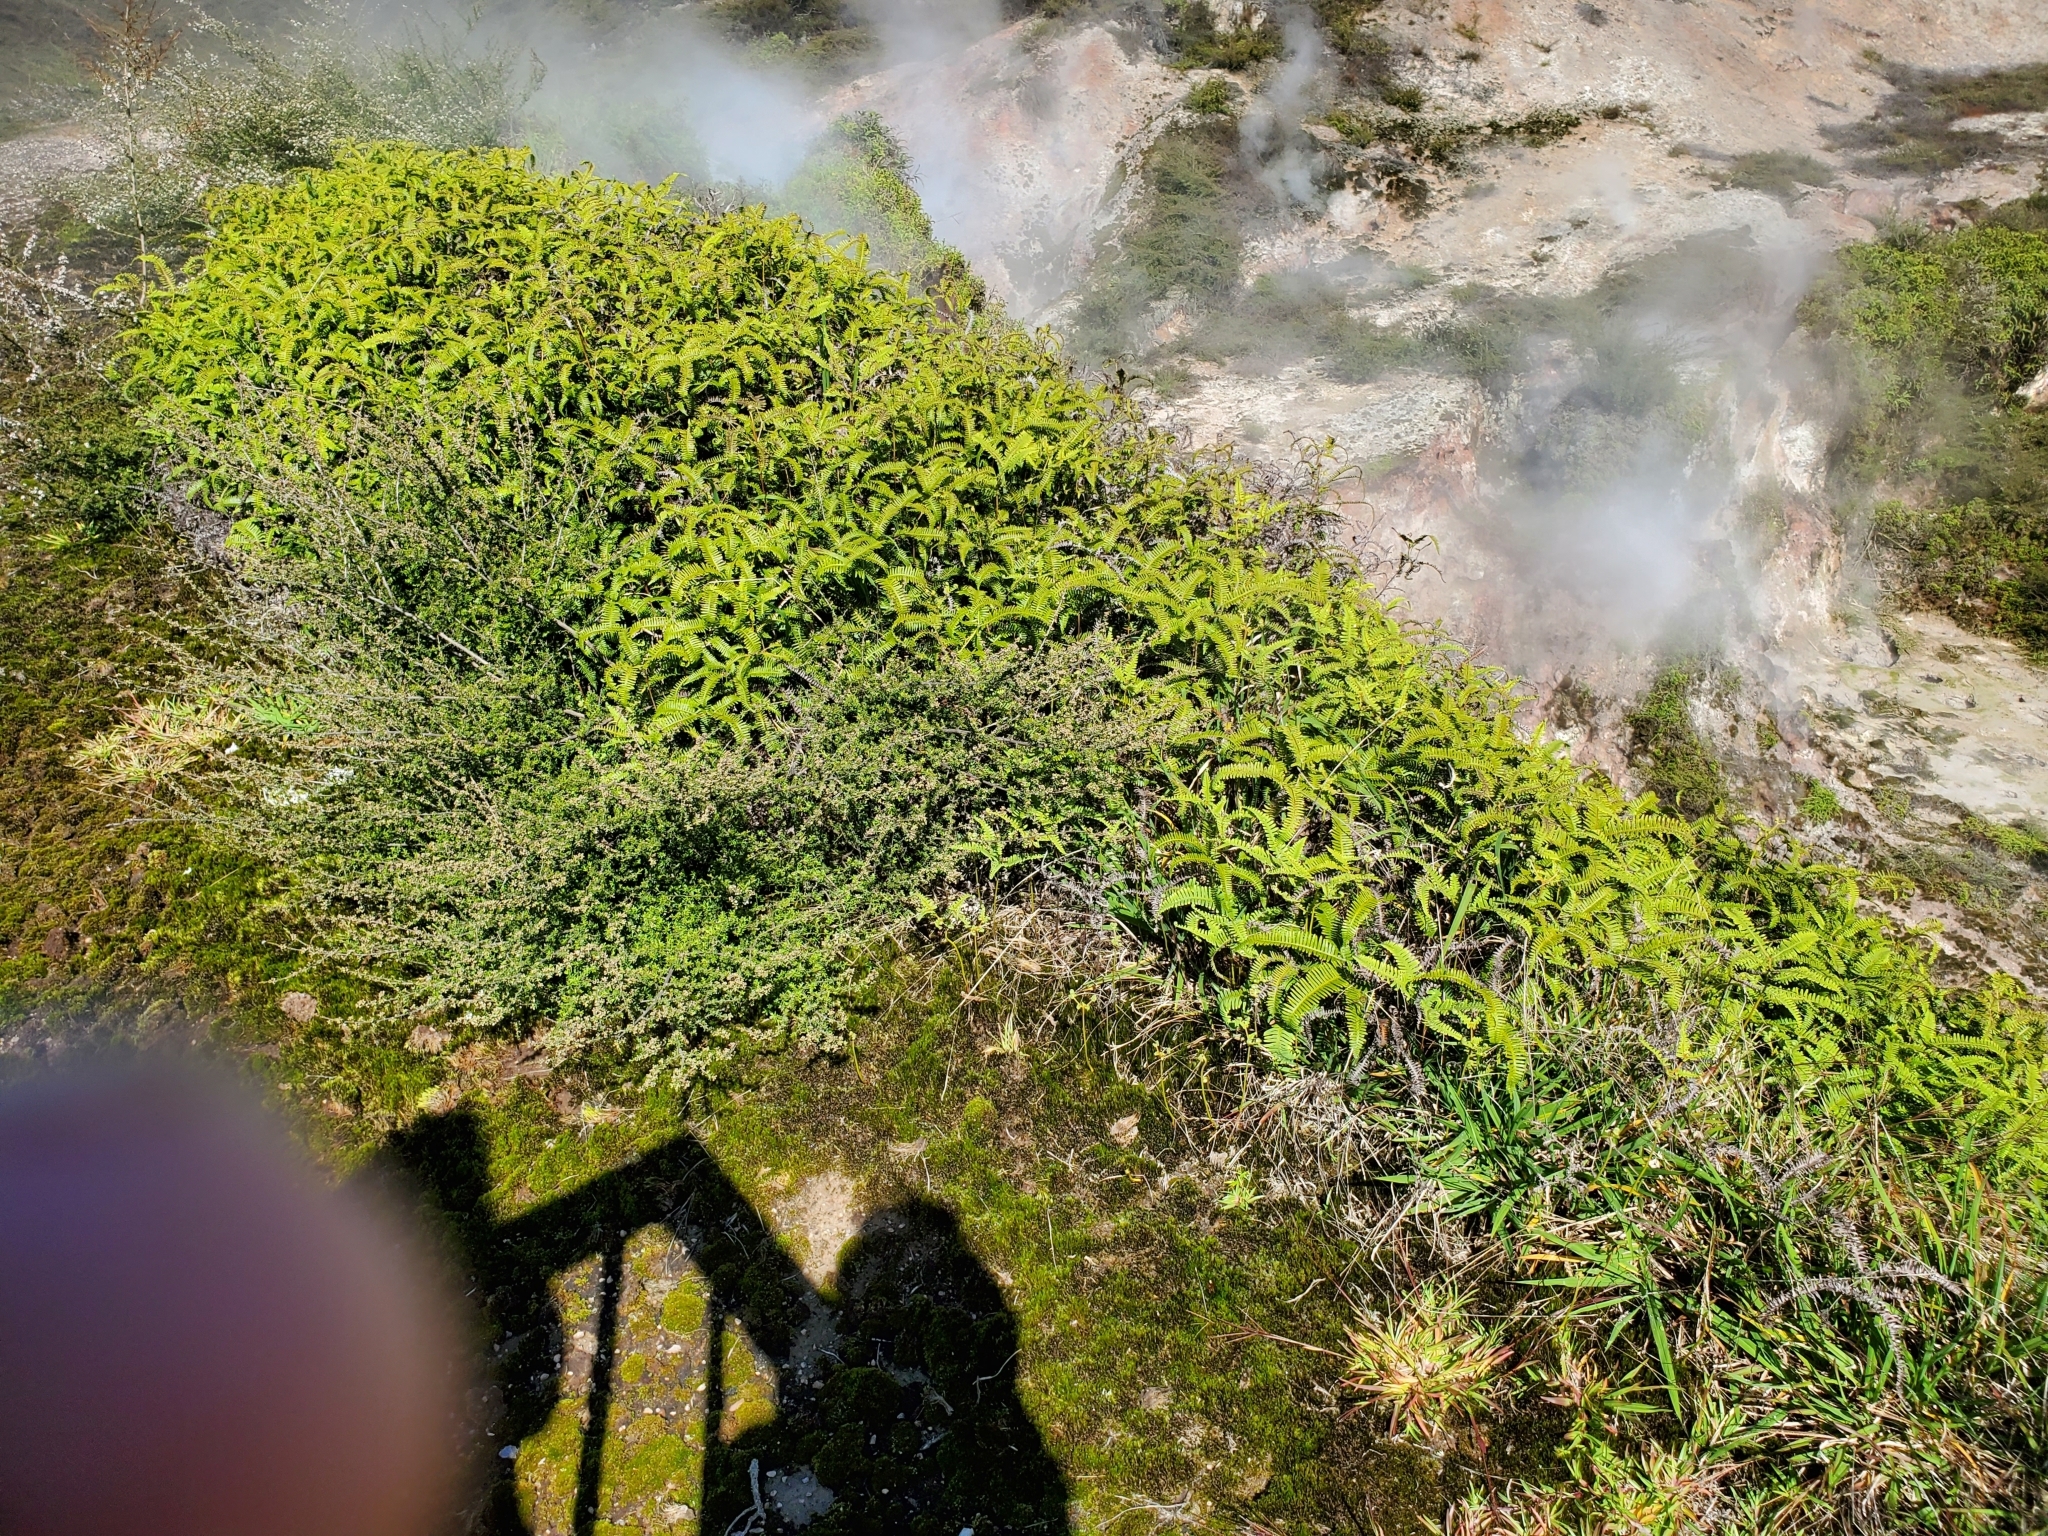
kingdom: Plantae
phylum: Tracheophyta
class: Polypodiopsida
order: Gleicheniales
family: Gleicheniaceae
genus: Dicranopteris
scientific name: Dicranopteris linearis
